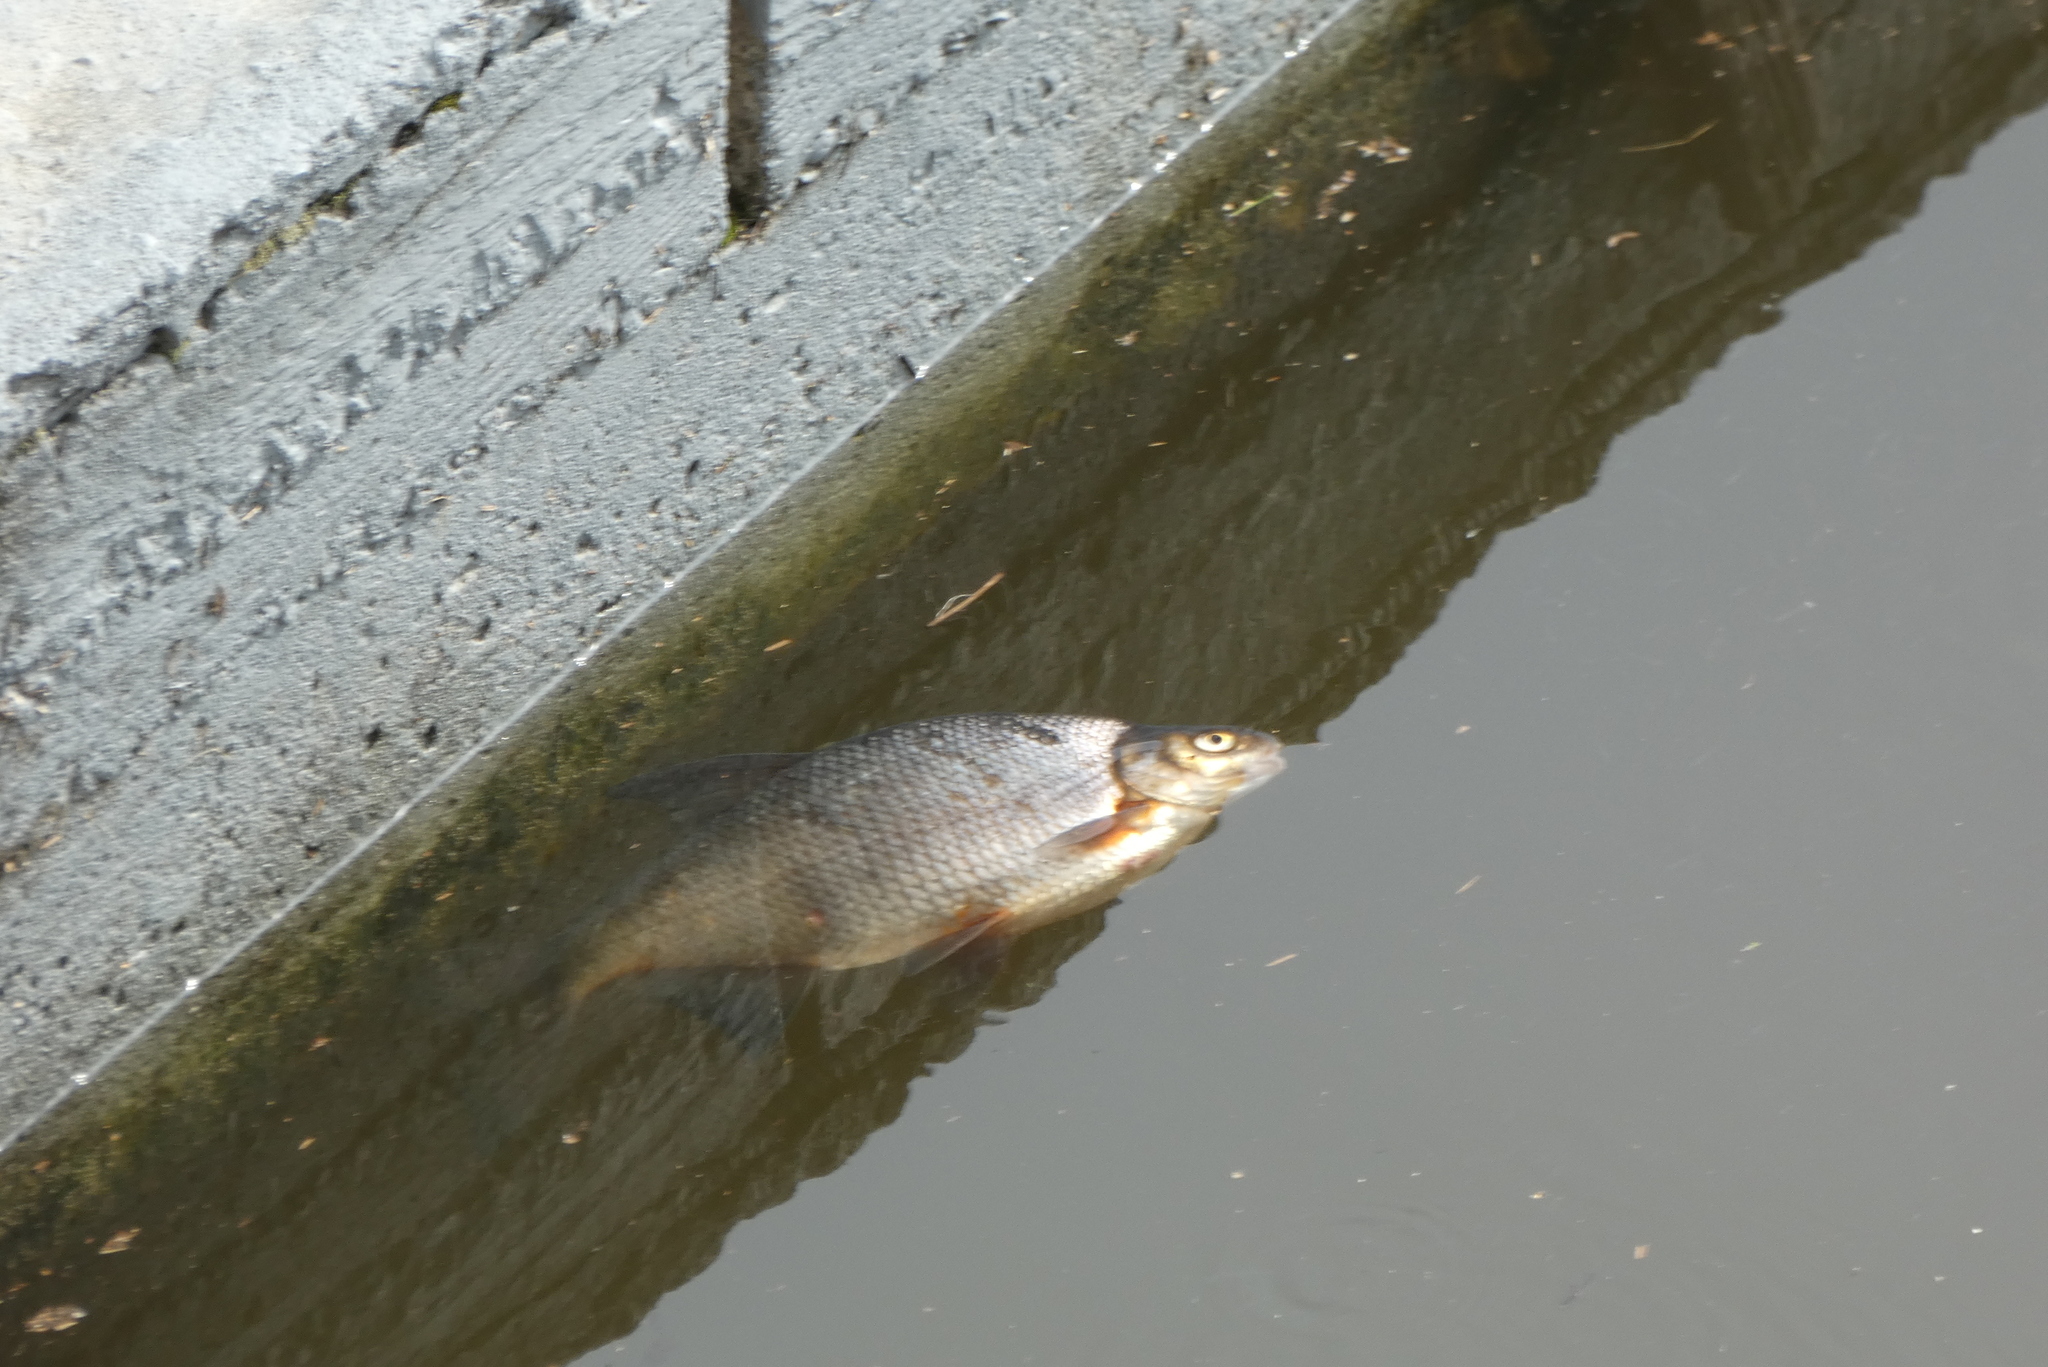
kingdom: Animalia
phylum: Chordata
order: Cypriniformes
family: Cyprinidae
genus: Abramis
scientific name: Abramis brama
